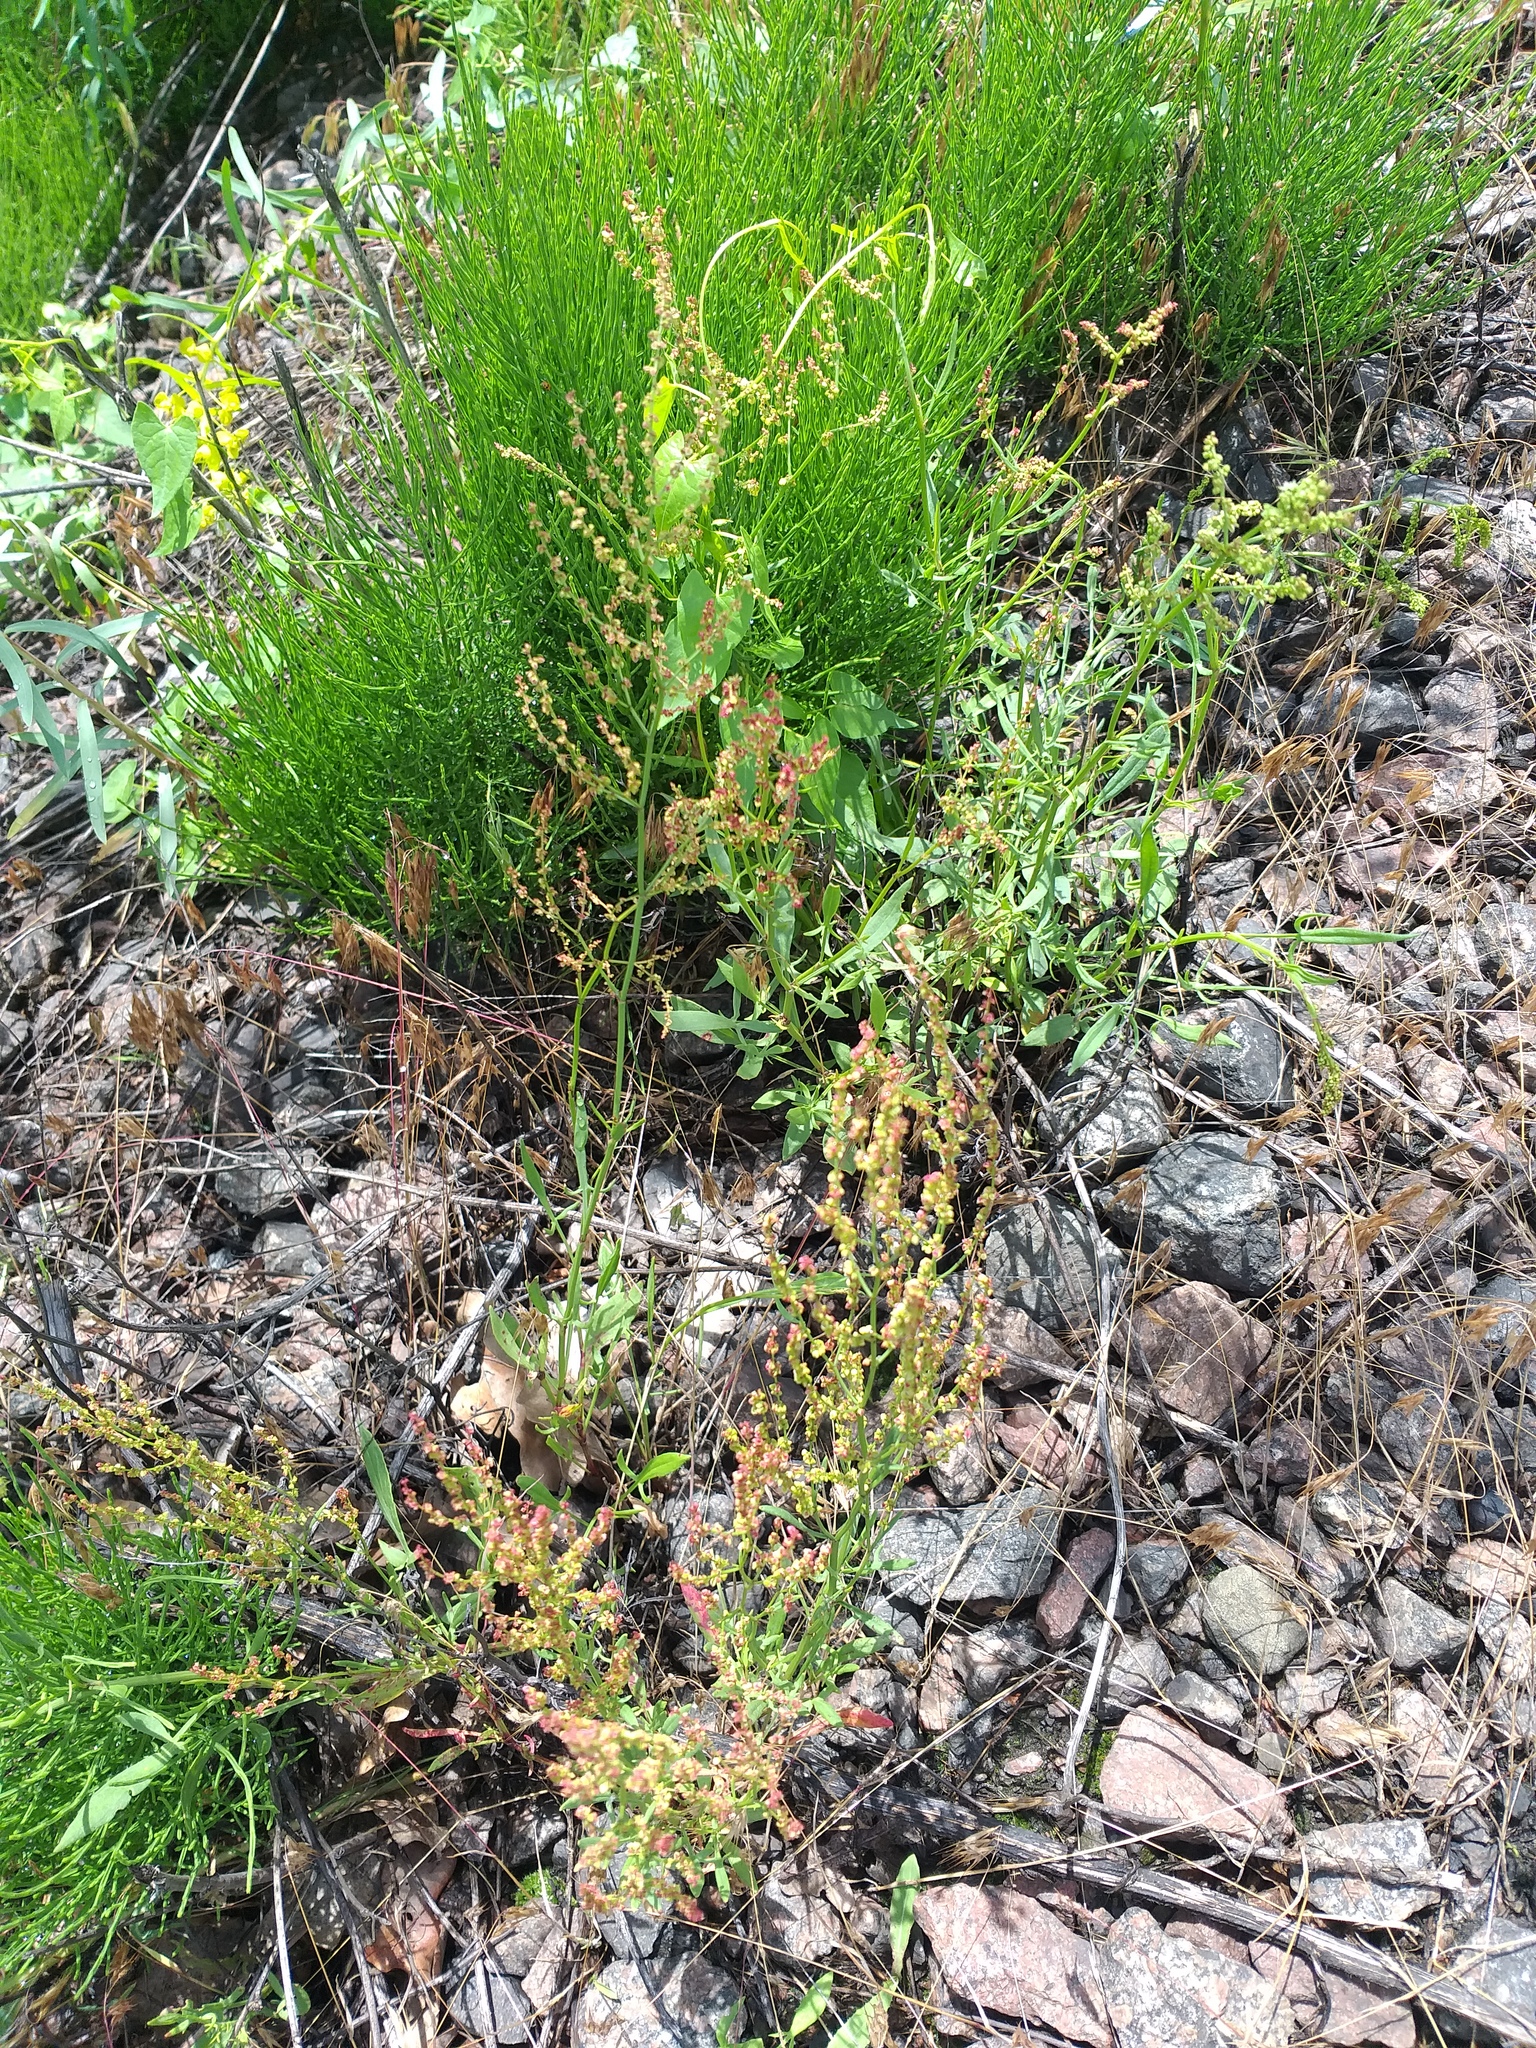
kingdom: Plantae
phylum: Tracheophyta
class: Magnoliopsida
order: Caryophyllales
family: Polygonaceae
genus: Rumex
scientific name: Rumex acetosella
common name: Common sheep sorrel
